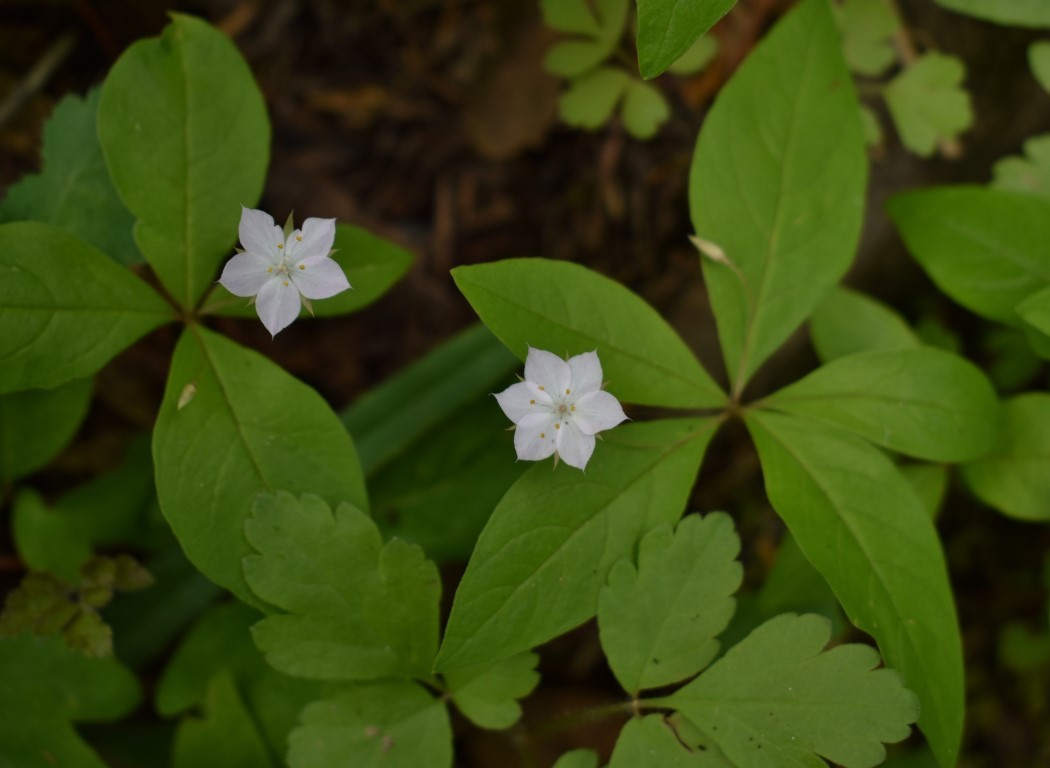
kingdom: Plantae
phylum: Tracheophyta
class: Magnoliopsida
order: Ericales
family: Primulaceae
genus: Lysimachia
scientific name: Lysimachia latifolia
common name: Pacific starflower
